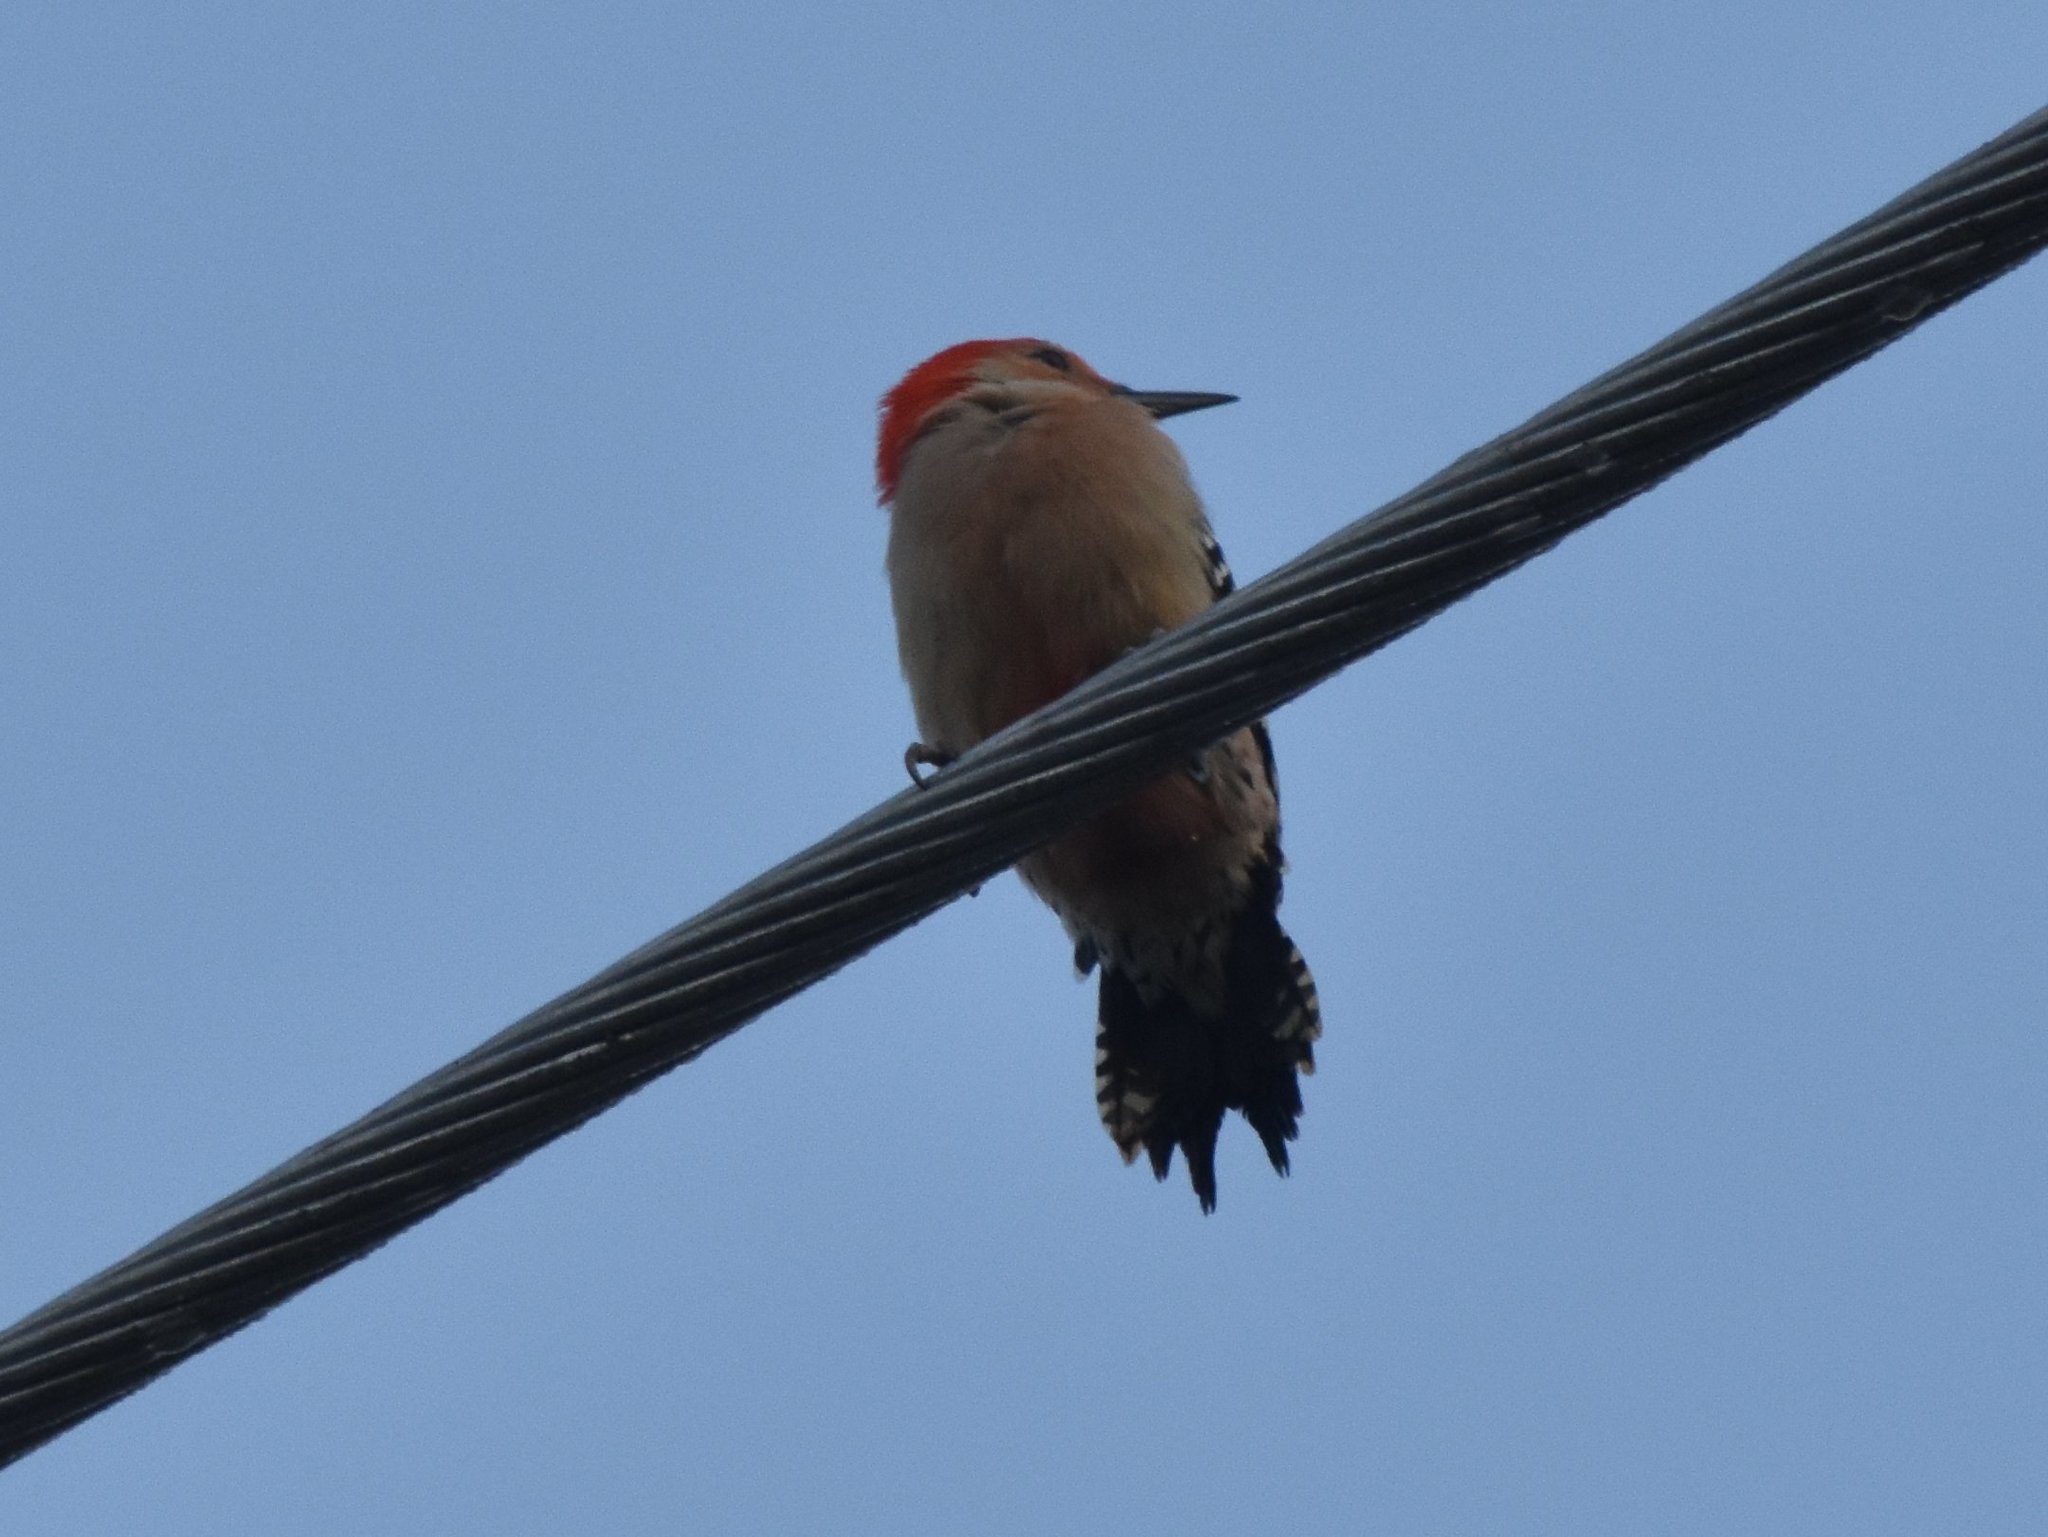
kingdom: Animalia
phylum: Chordata
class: Aves
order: Piciformes
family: Picidae
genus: Melanerpes
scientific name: Melanerpes carolinus
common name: Red-bellied woodpecker
